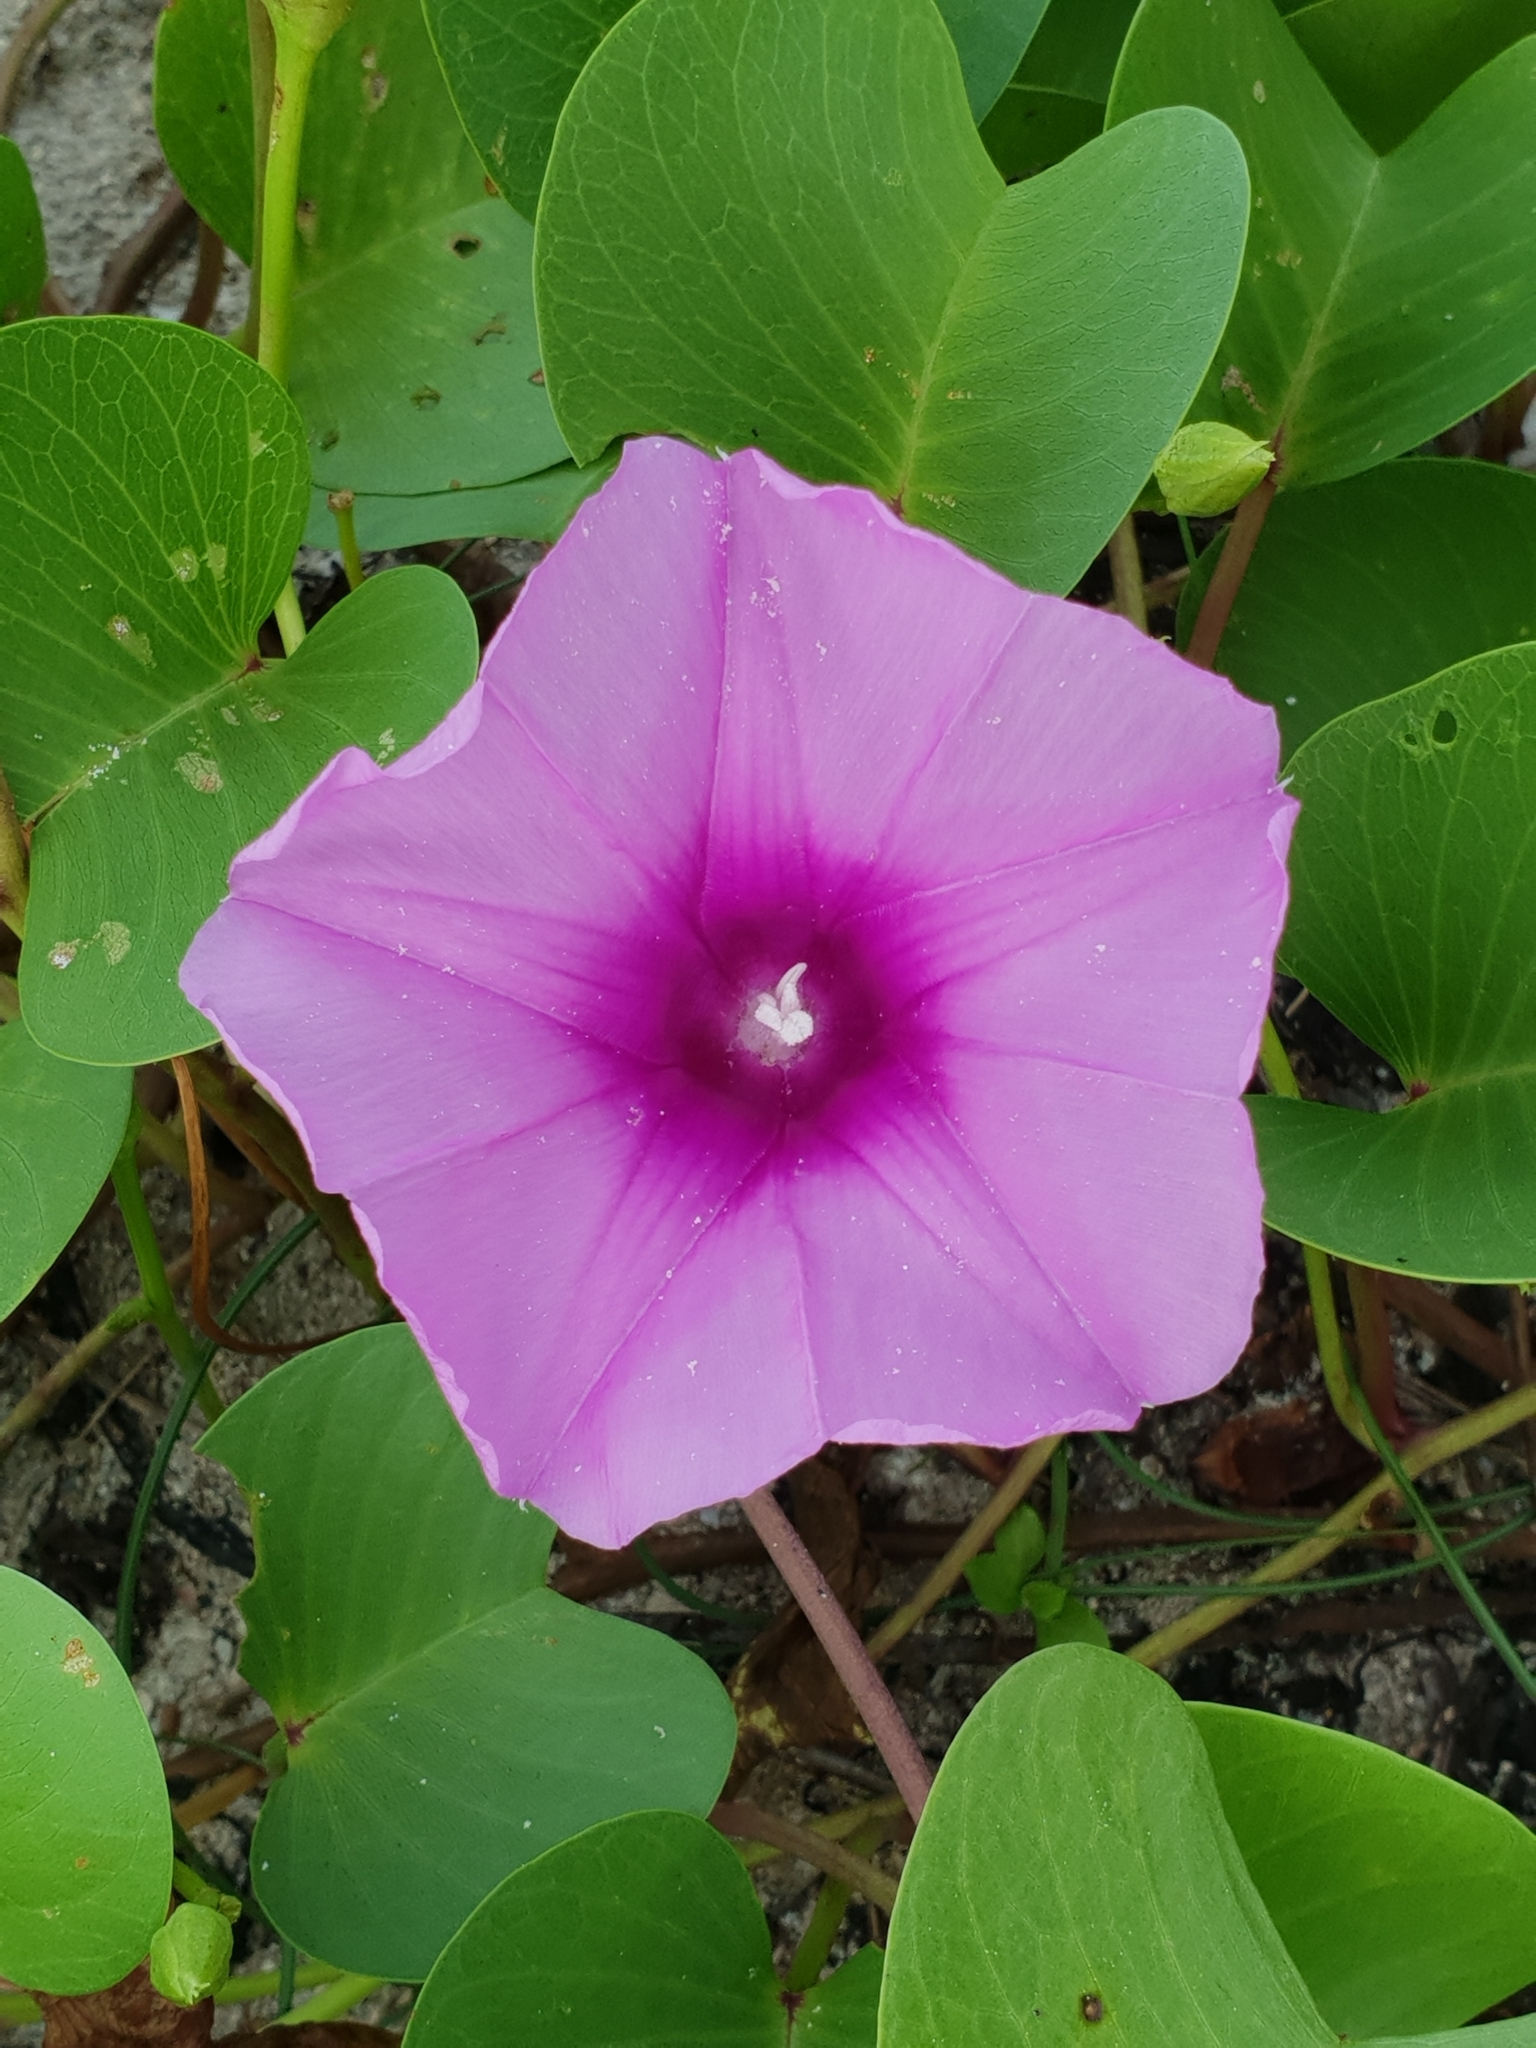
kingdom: Plantae
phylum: Tracheophyta
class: Magnoliopsida
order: Solanales
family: Convolvulaceae
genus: Ipomoea
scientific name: Ipomoea pes-caprae
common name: Beach morning glory
